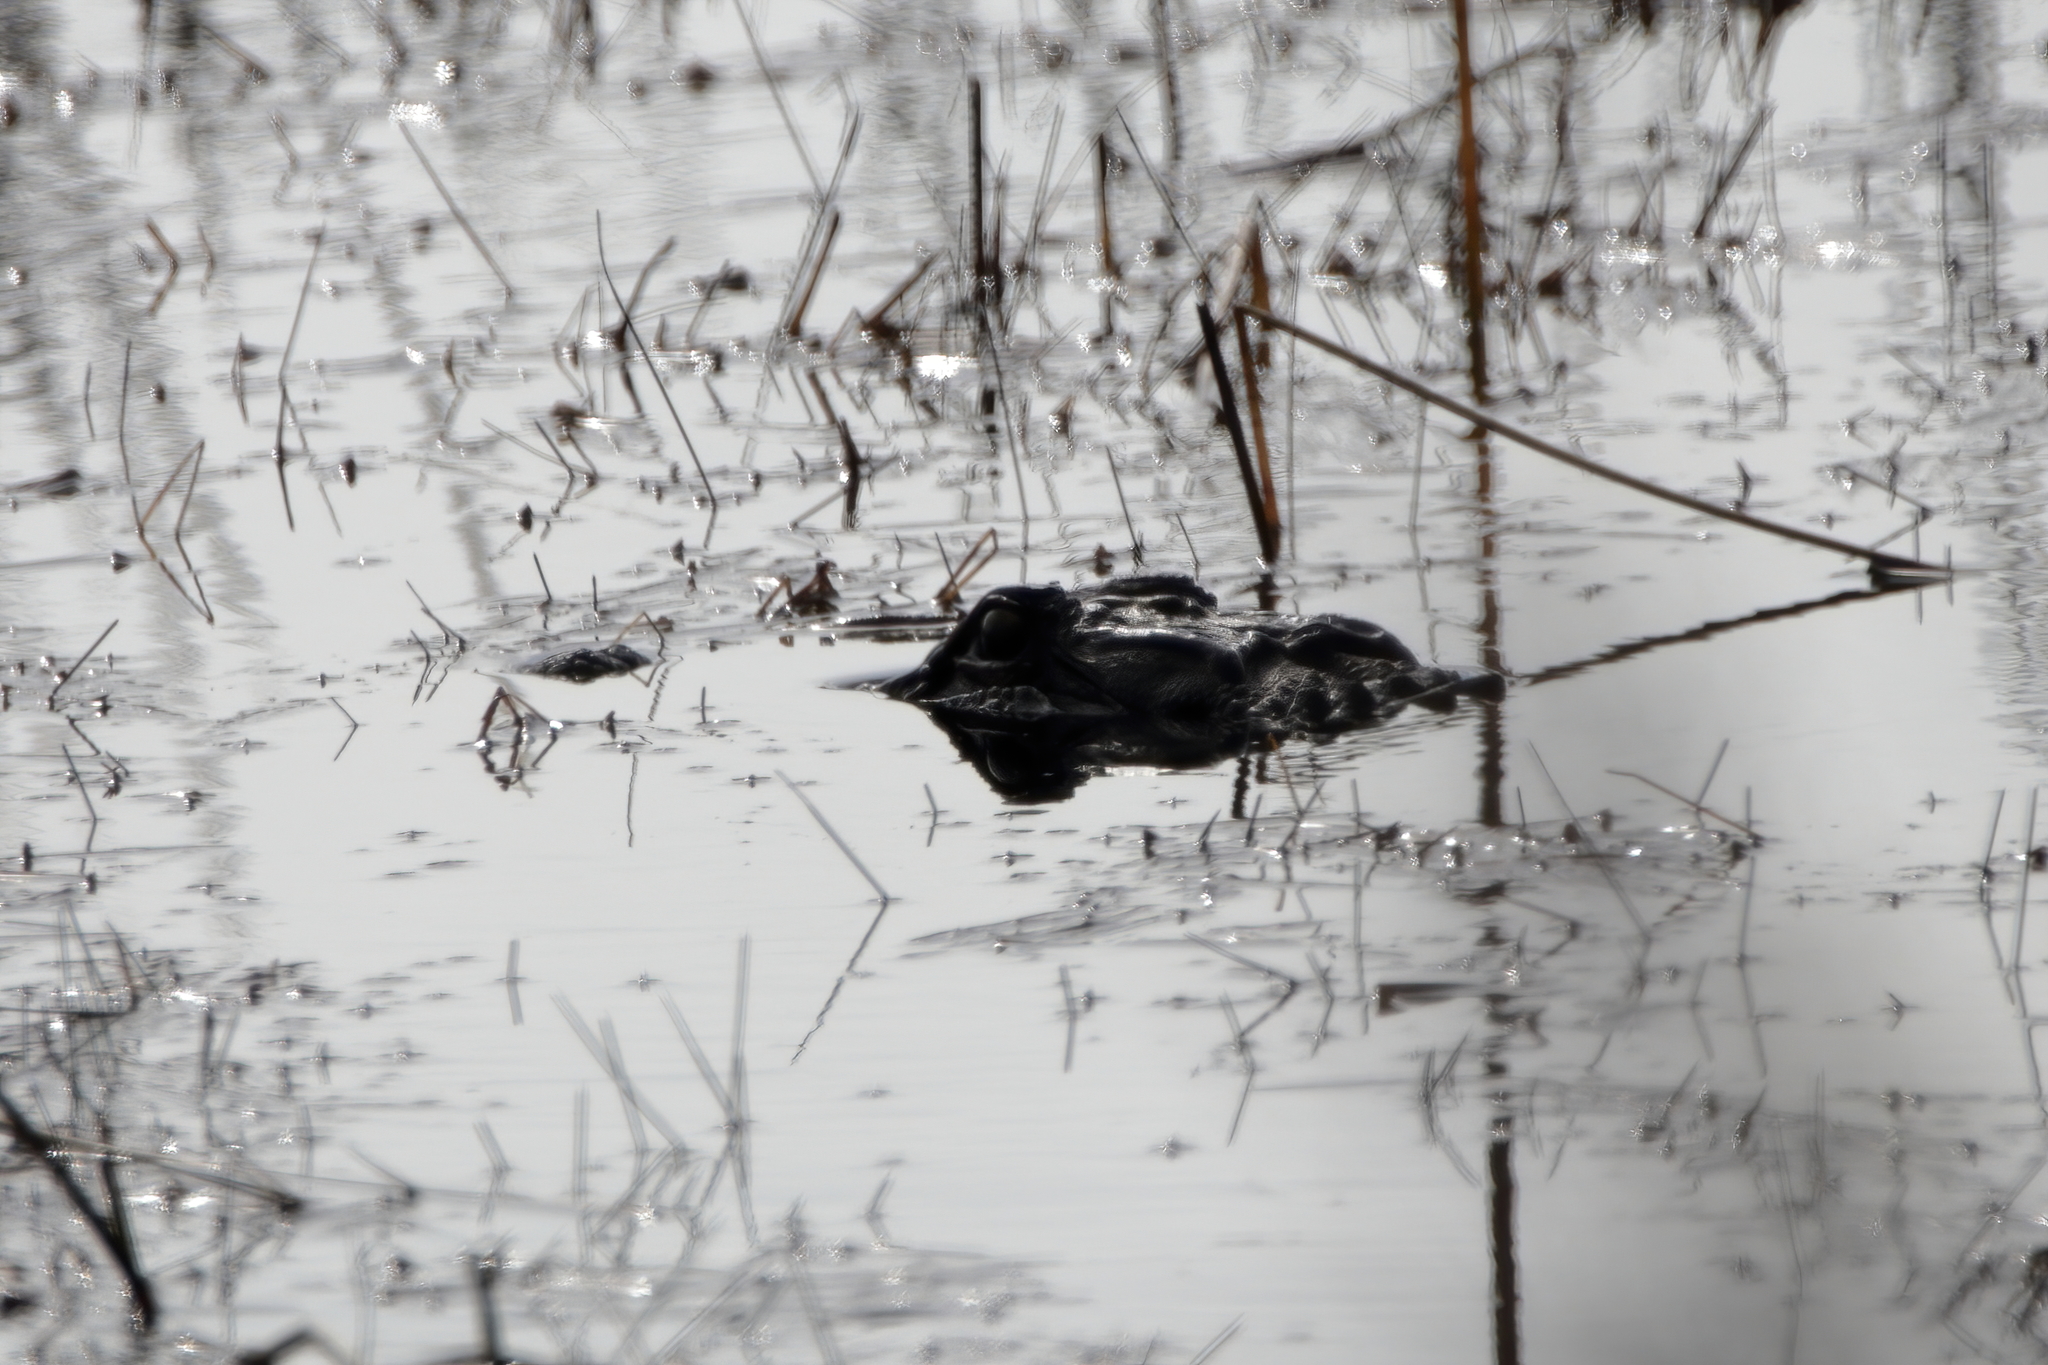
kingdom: Animalia
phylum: Chordata
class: Crocodylia
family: Alligatoridae
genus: Alligator
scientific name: Alligator mississippiensis
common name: American alligator
